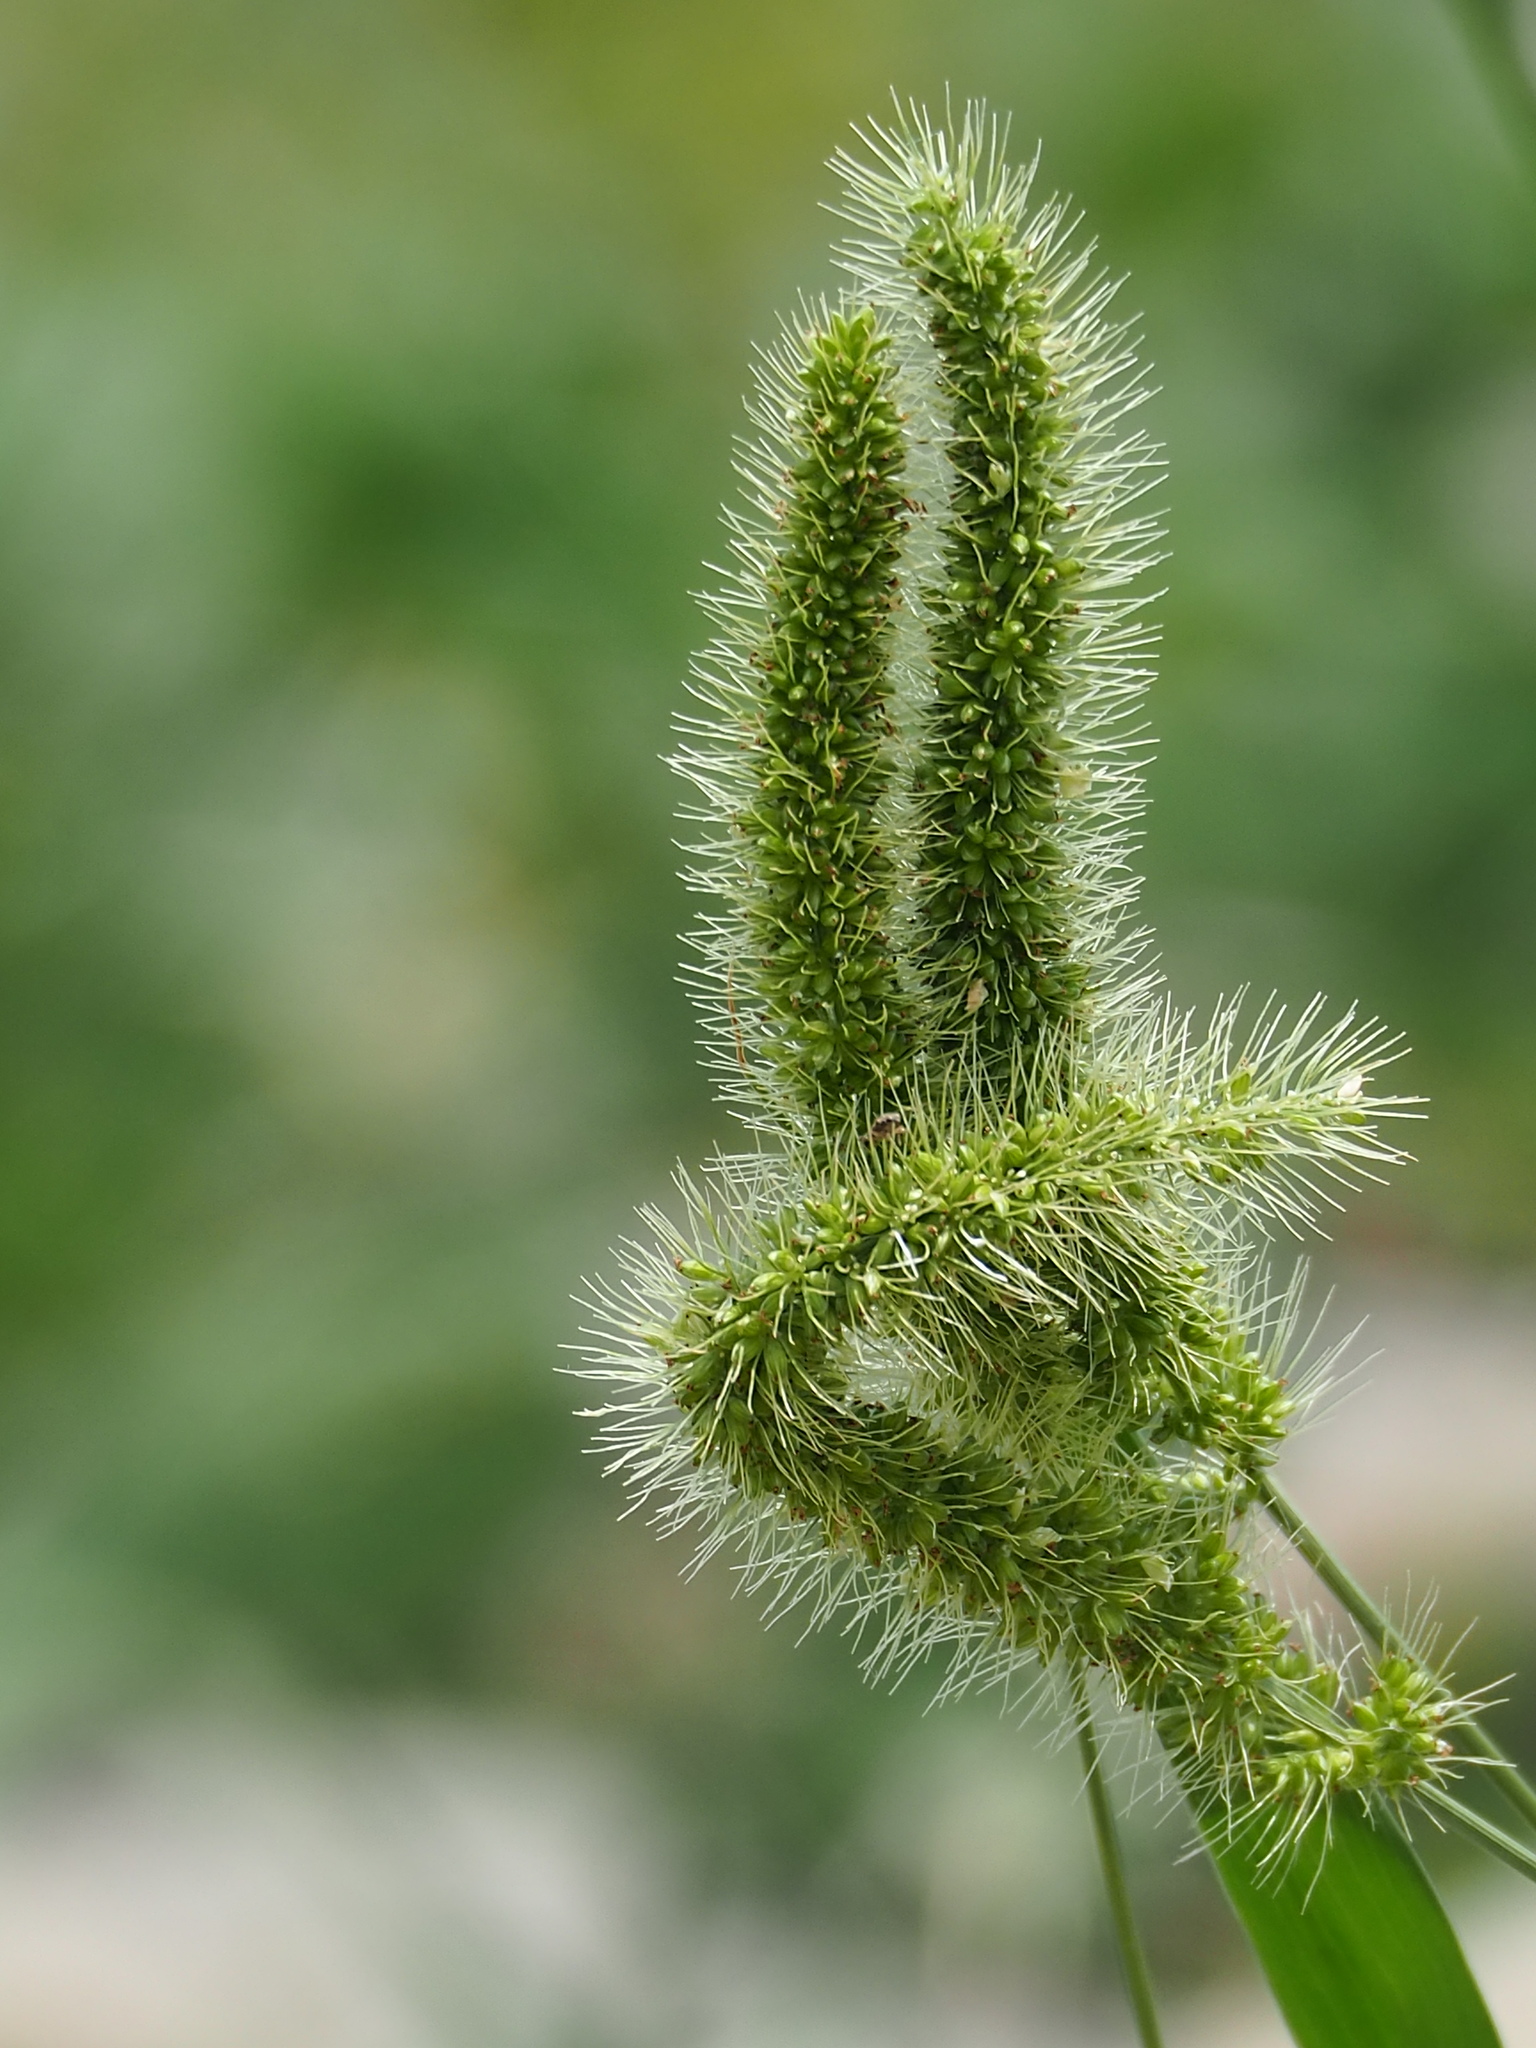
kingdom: Plantae
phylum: Tracheophyta
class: Liliopsida
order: Poales
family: Poaceae
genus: Setaria
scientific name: Setaria verticillata
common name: Hooked bristlegrass
